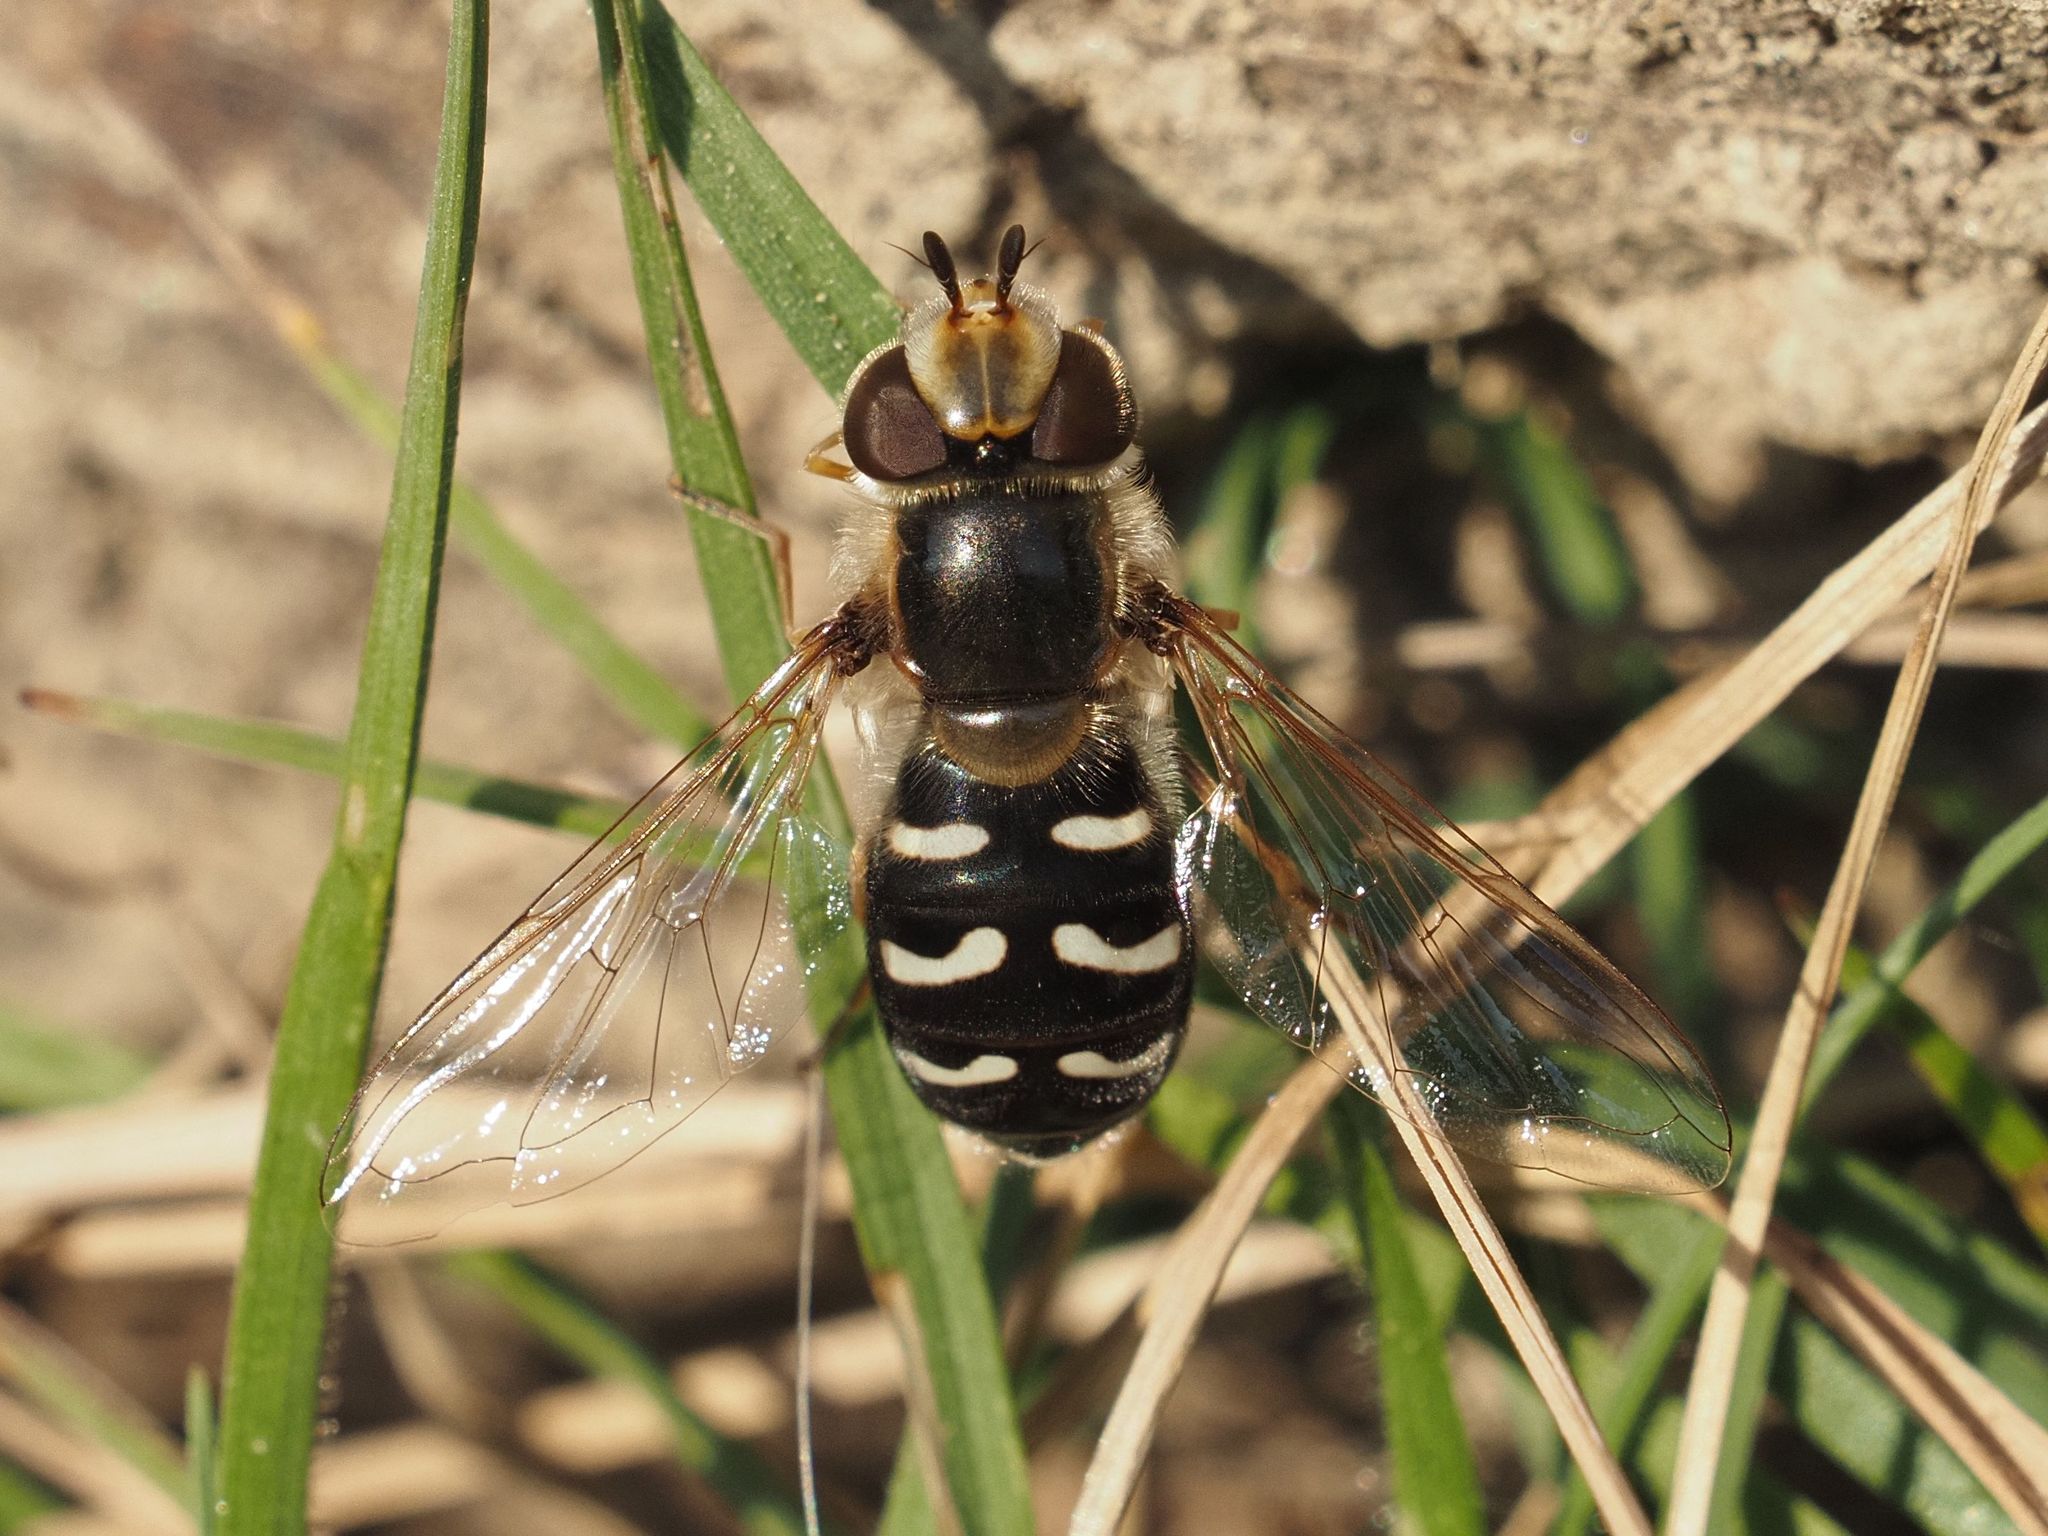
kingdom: Animalia
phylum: Arthropoda
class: Insecta
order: Diptera
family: Syrphidae
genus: Scaeva
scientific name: Scaeva pyrastri
